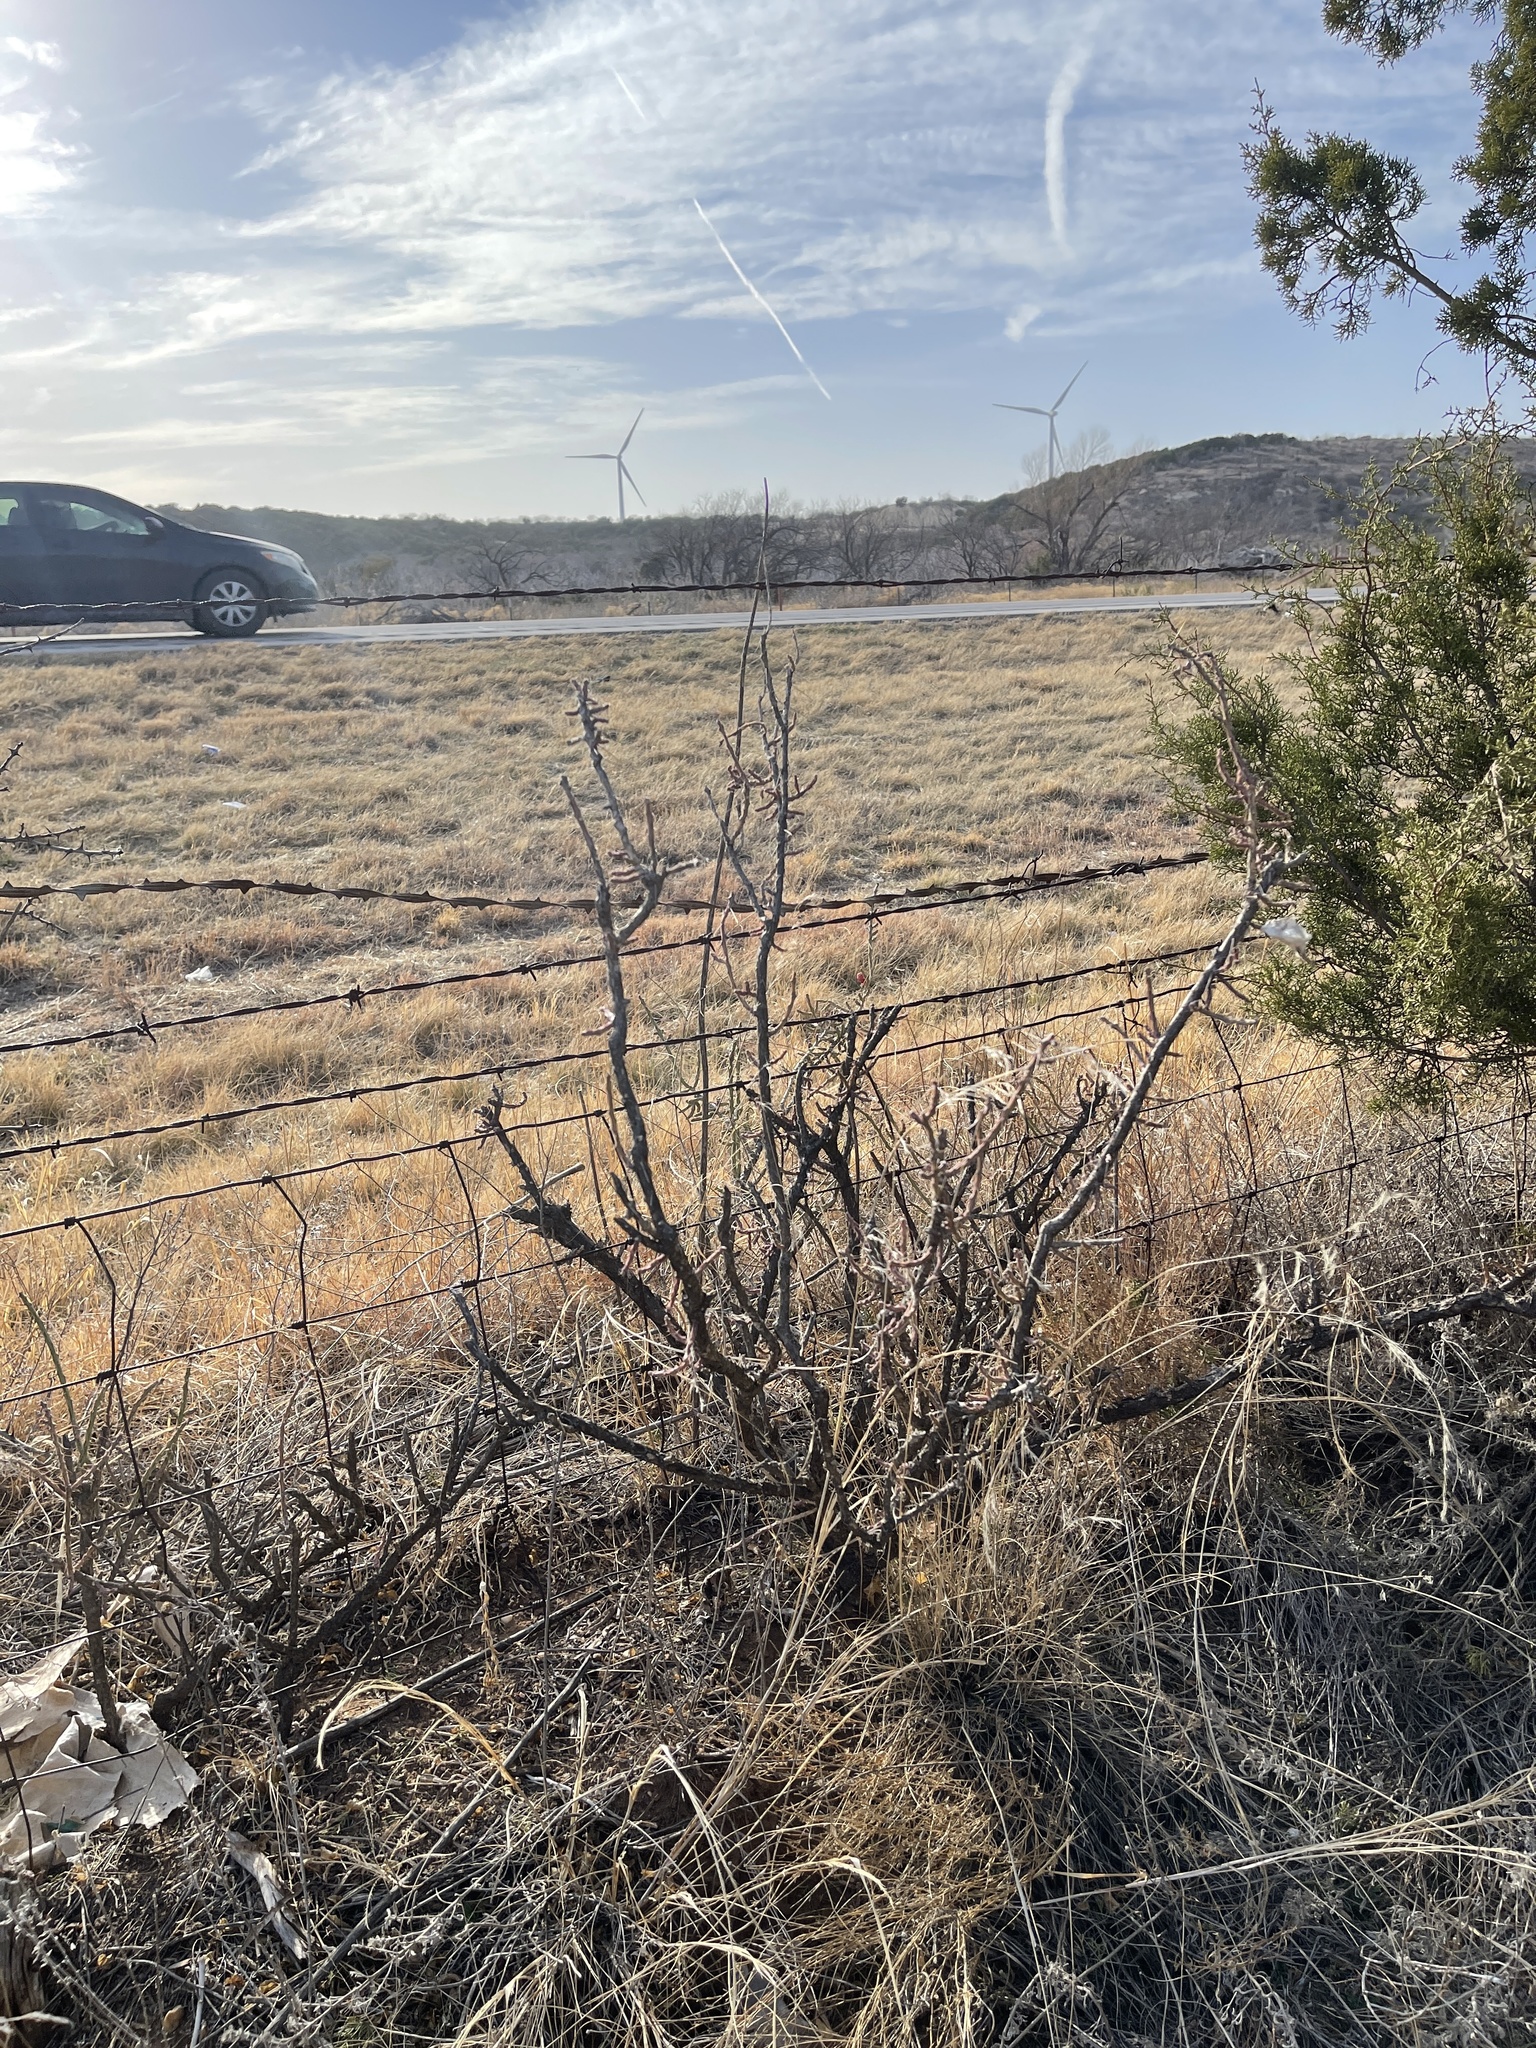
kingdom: Plantae
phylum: Tracheophyta
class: Magnoliopsida
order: Caryophyllales
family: Cactaceae
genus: Cylindropuntia
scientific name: Cylindropuntia leptocaulis
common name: Christmas cactus
